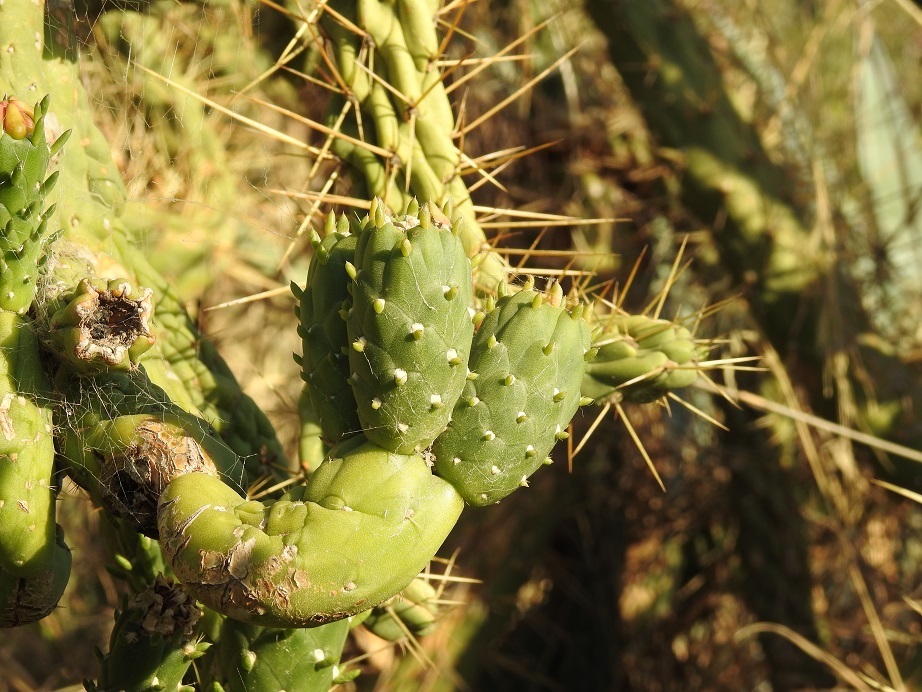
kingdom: Plantae
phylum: Tracheophyta
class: Magnoliopsida
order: Caryophyllales
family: Cactaceae
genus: Austrocylindropuntia
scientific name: Austrocylindropuntia subulata
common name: Eve's needle cactus
